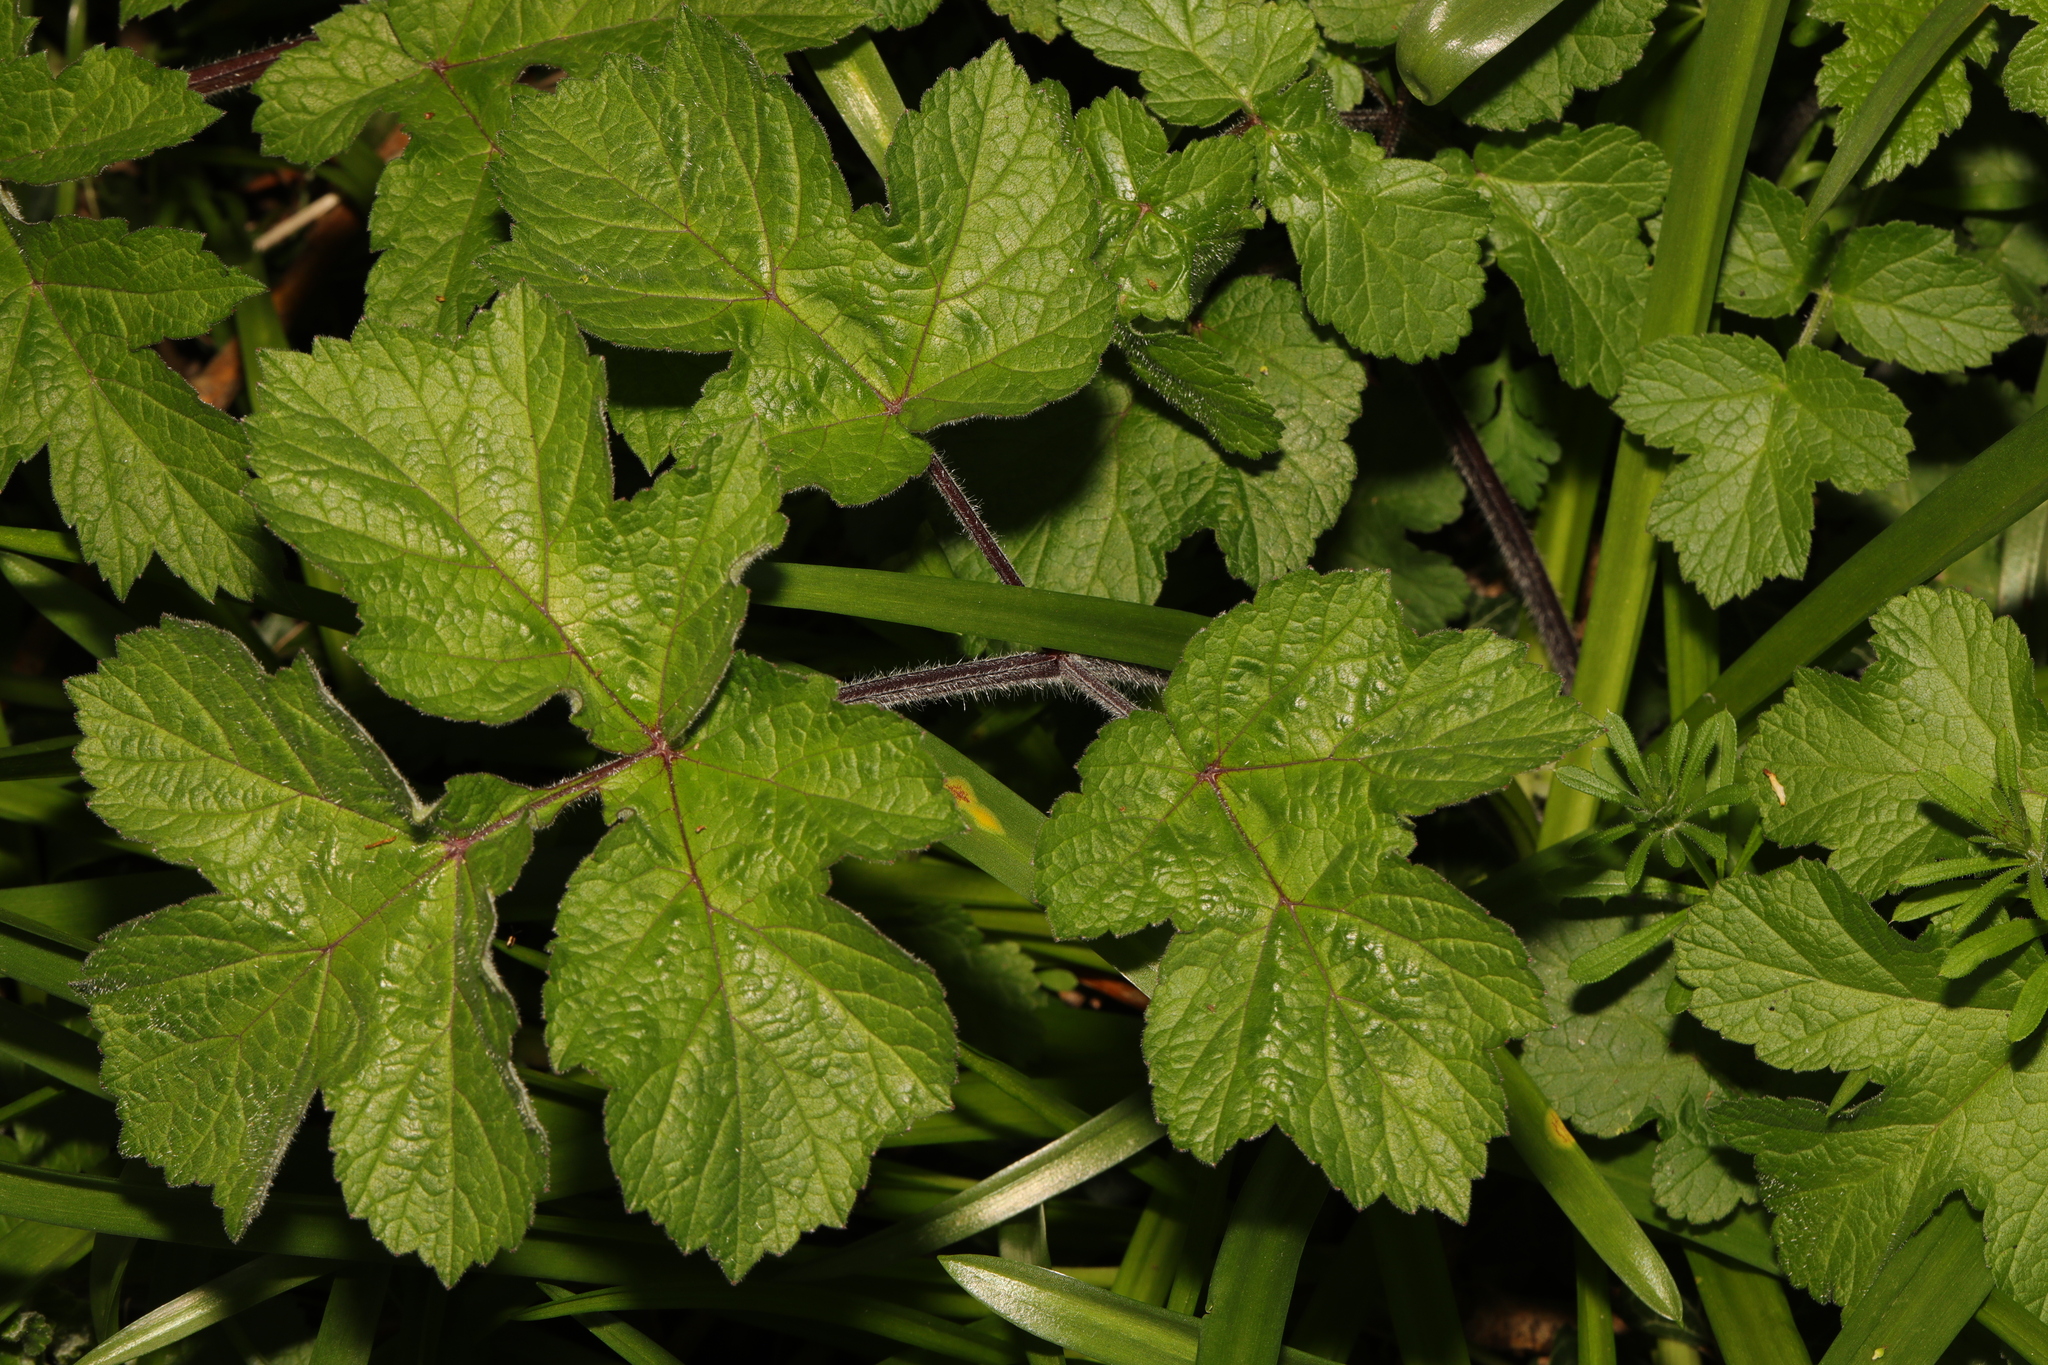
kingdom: Plantae
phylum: Tracheophyta
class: Magnoliopsida
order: Apiales
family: Apiaceae
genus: Heracleum
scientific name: Heracleum sphondylium
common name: Hogweed
